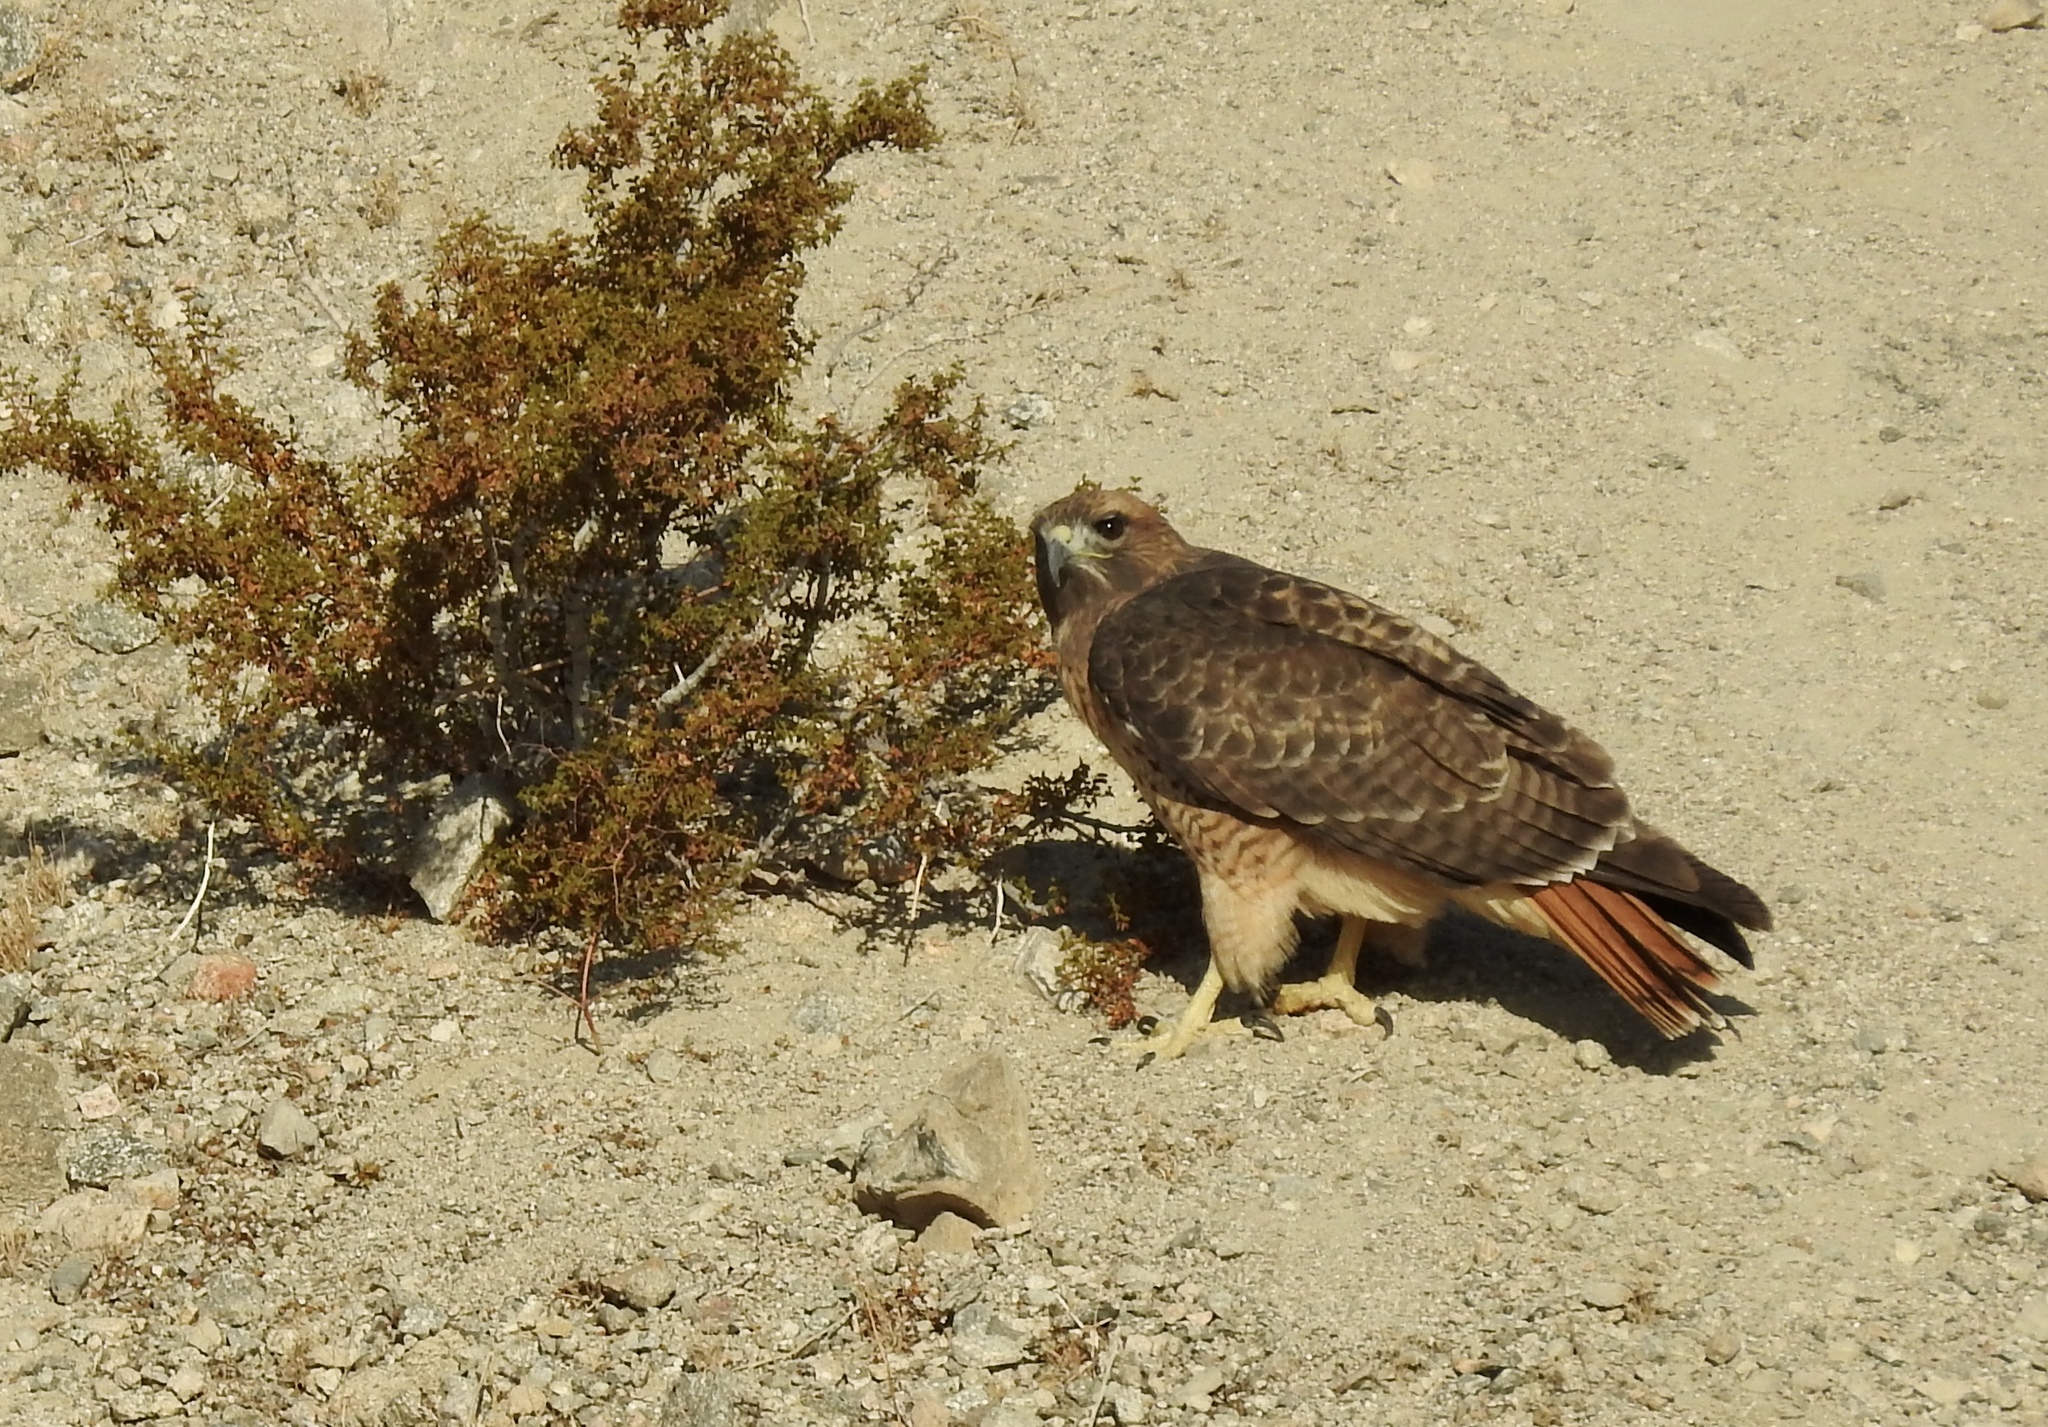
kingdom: Animalia
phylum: Chordata
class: Aves
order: Accipitriformes
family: Accipitridae
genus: Buteo
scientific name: Buteo jamaicensis
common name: Red-tailed hawk
